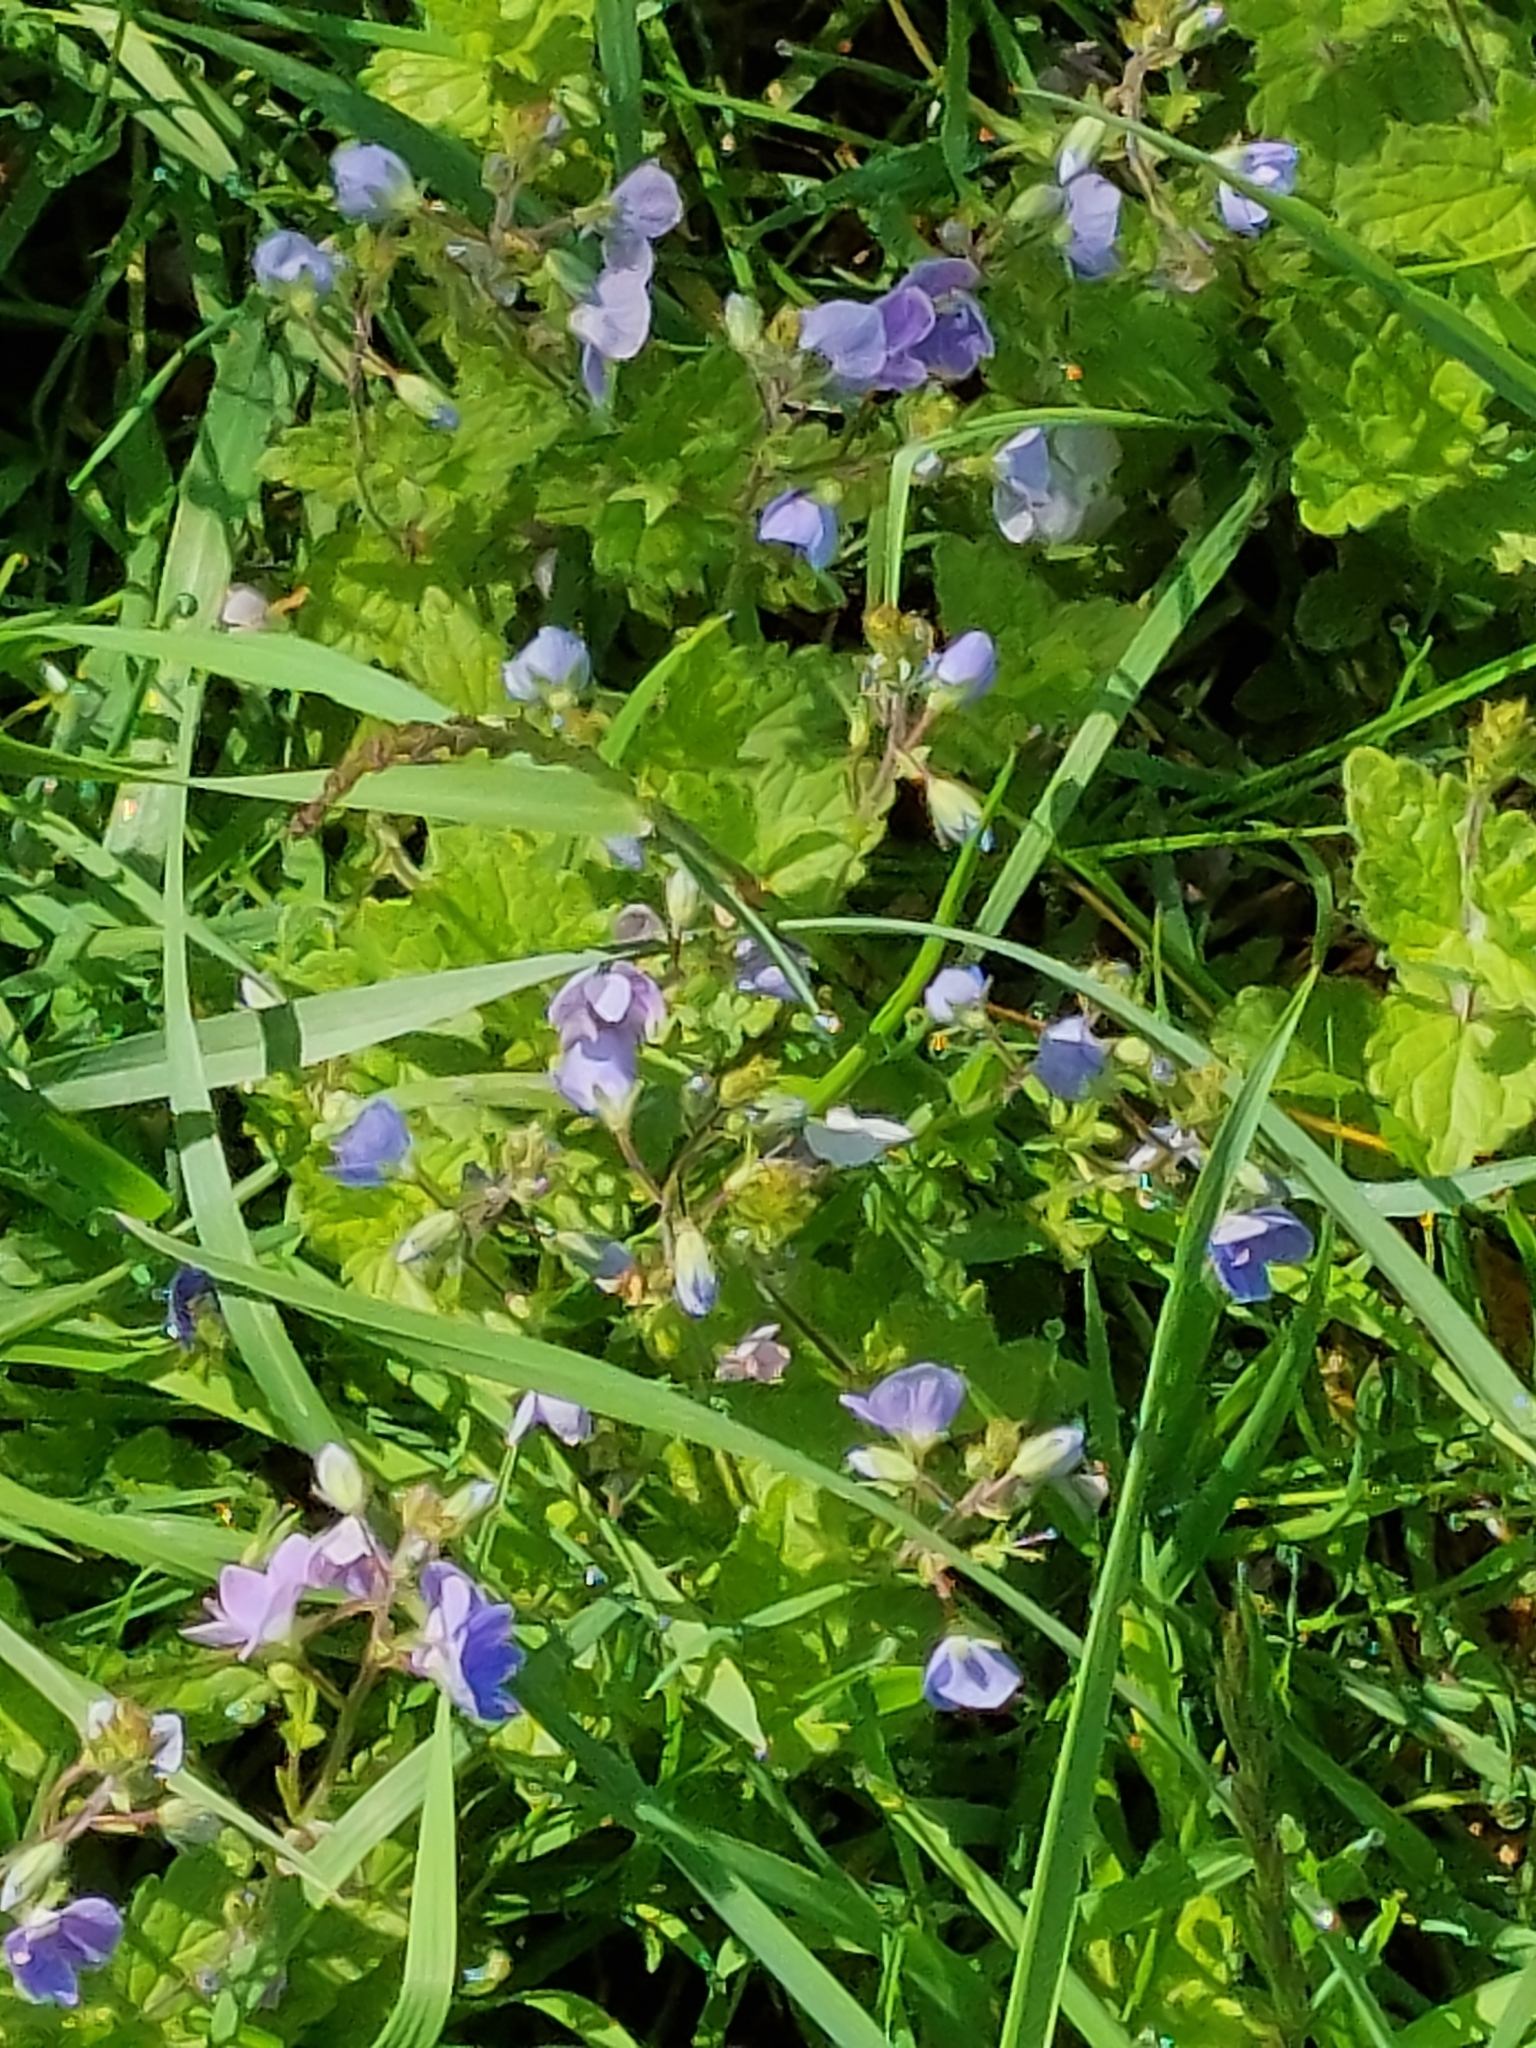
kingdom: Plantae
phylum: Tracheophyta
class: Magnoliopsida
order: Lamiales
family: Plantaginaceae
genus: Veronica
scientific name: Veronica chamaedrys
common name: Germander speedwell
